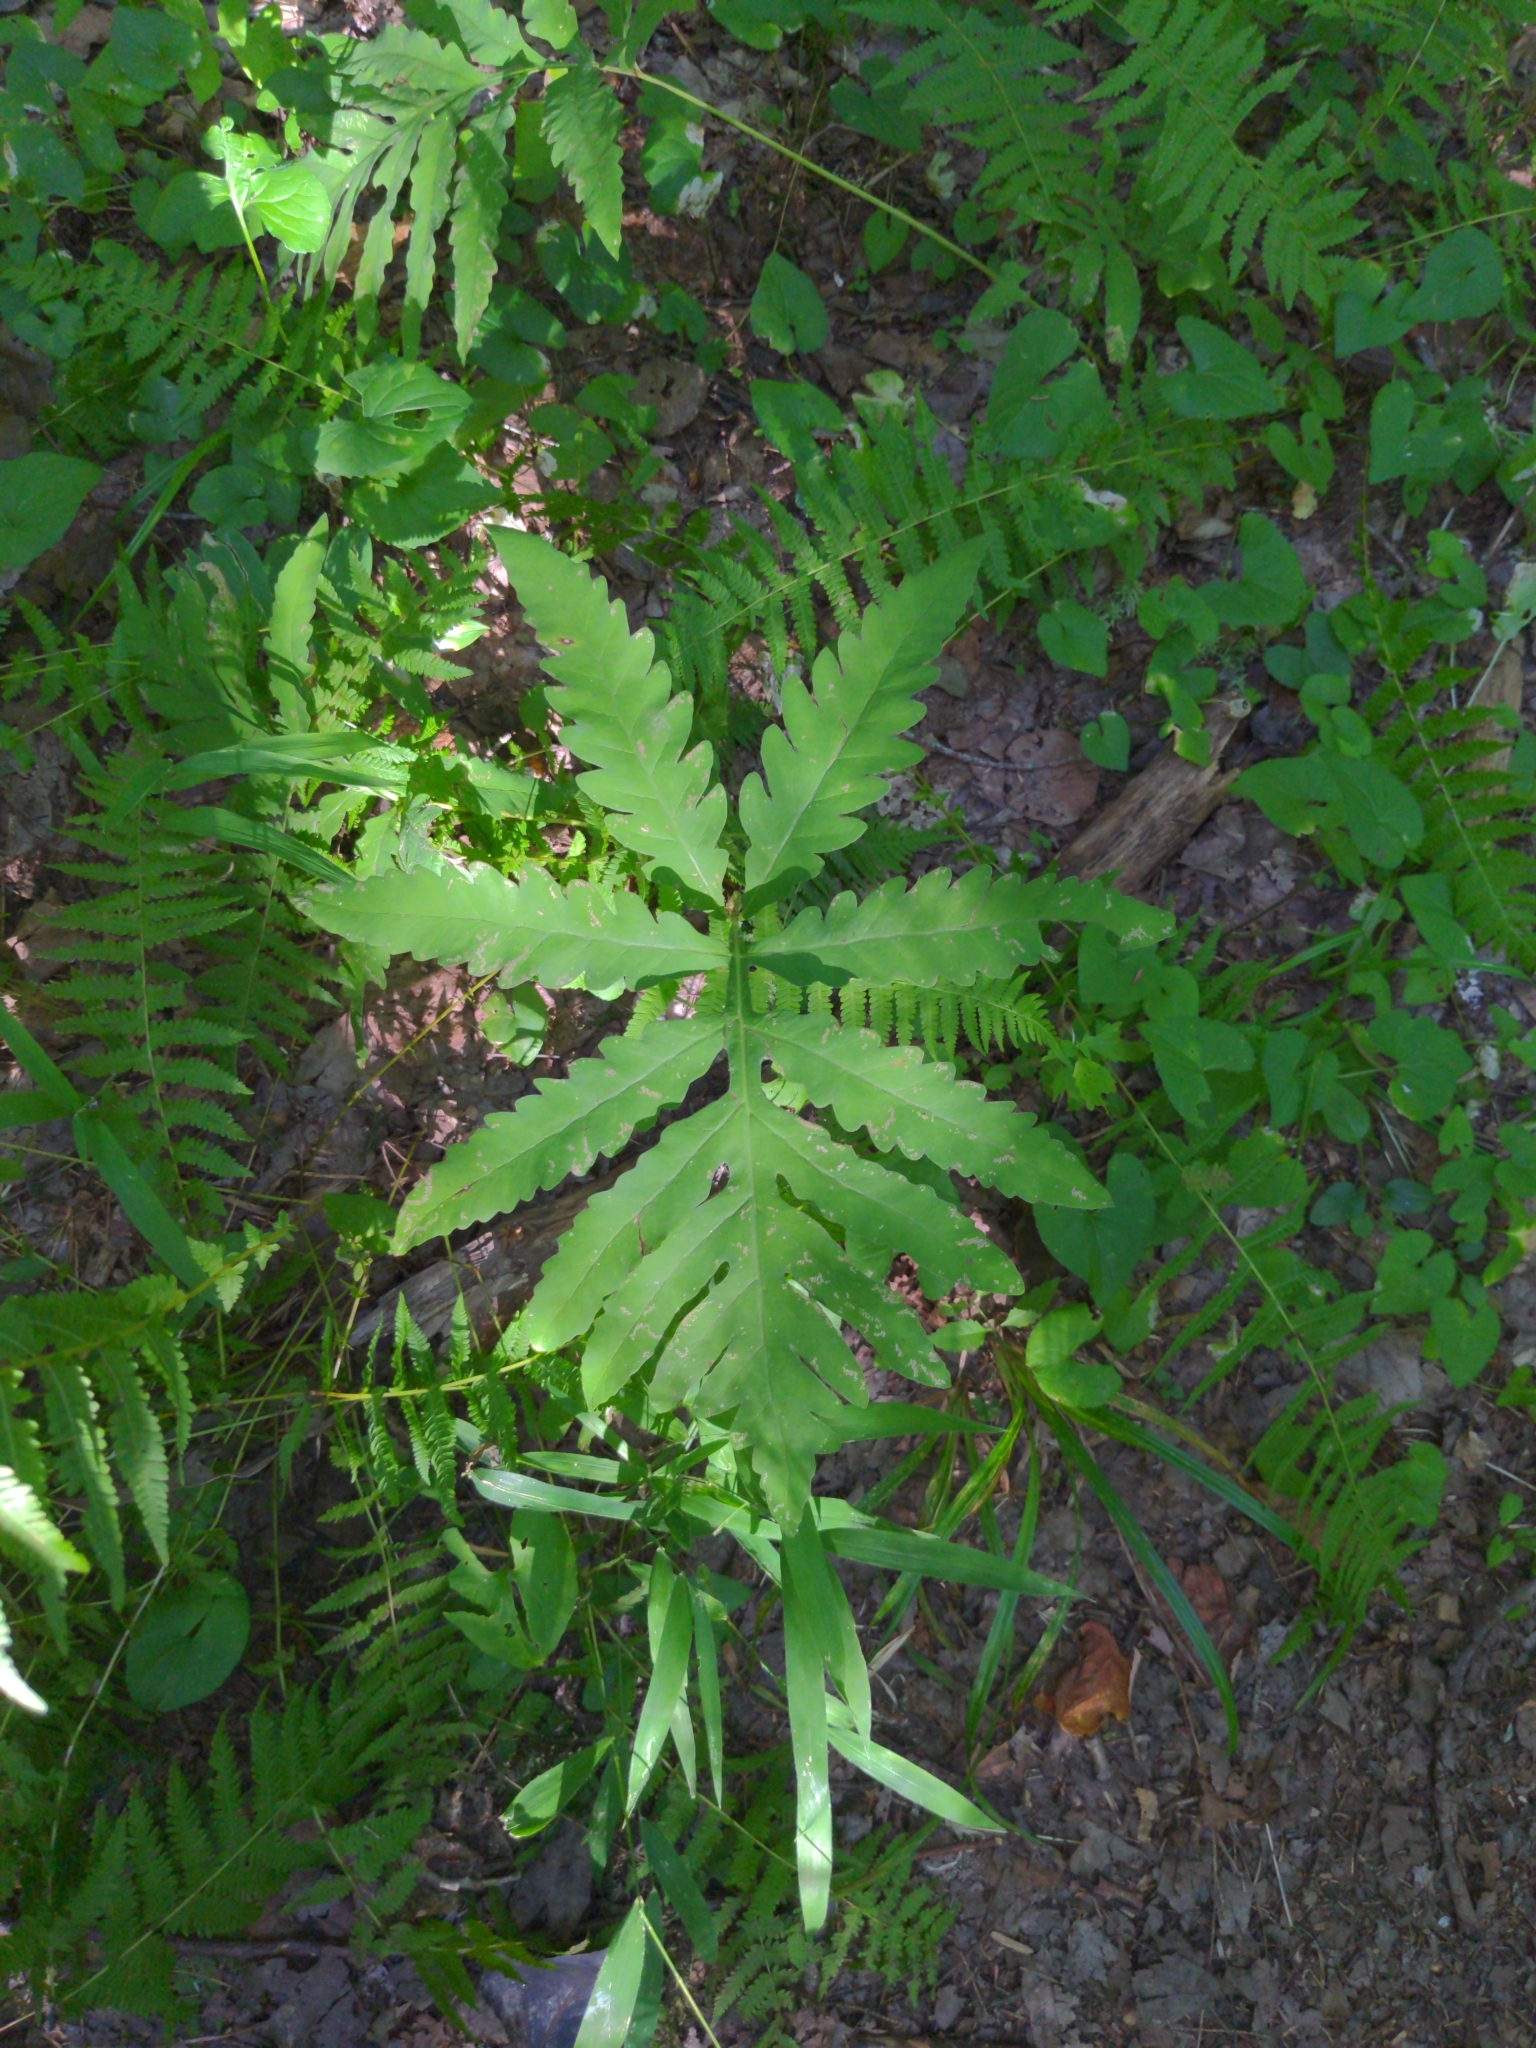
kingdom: Plantae
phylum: Tracheophyta
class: Polypodiopsida
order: Polypodiales
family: Onocleaceae
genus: Onoclea
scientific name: Onoclea sensibilis
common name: Sensitive fern
